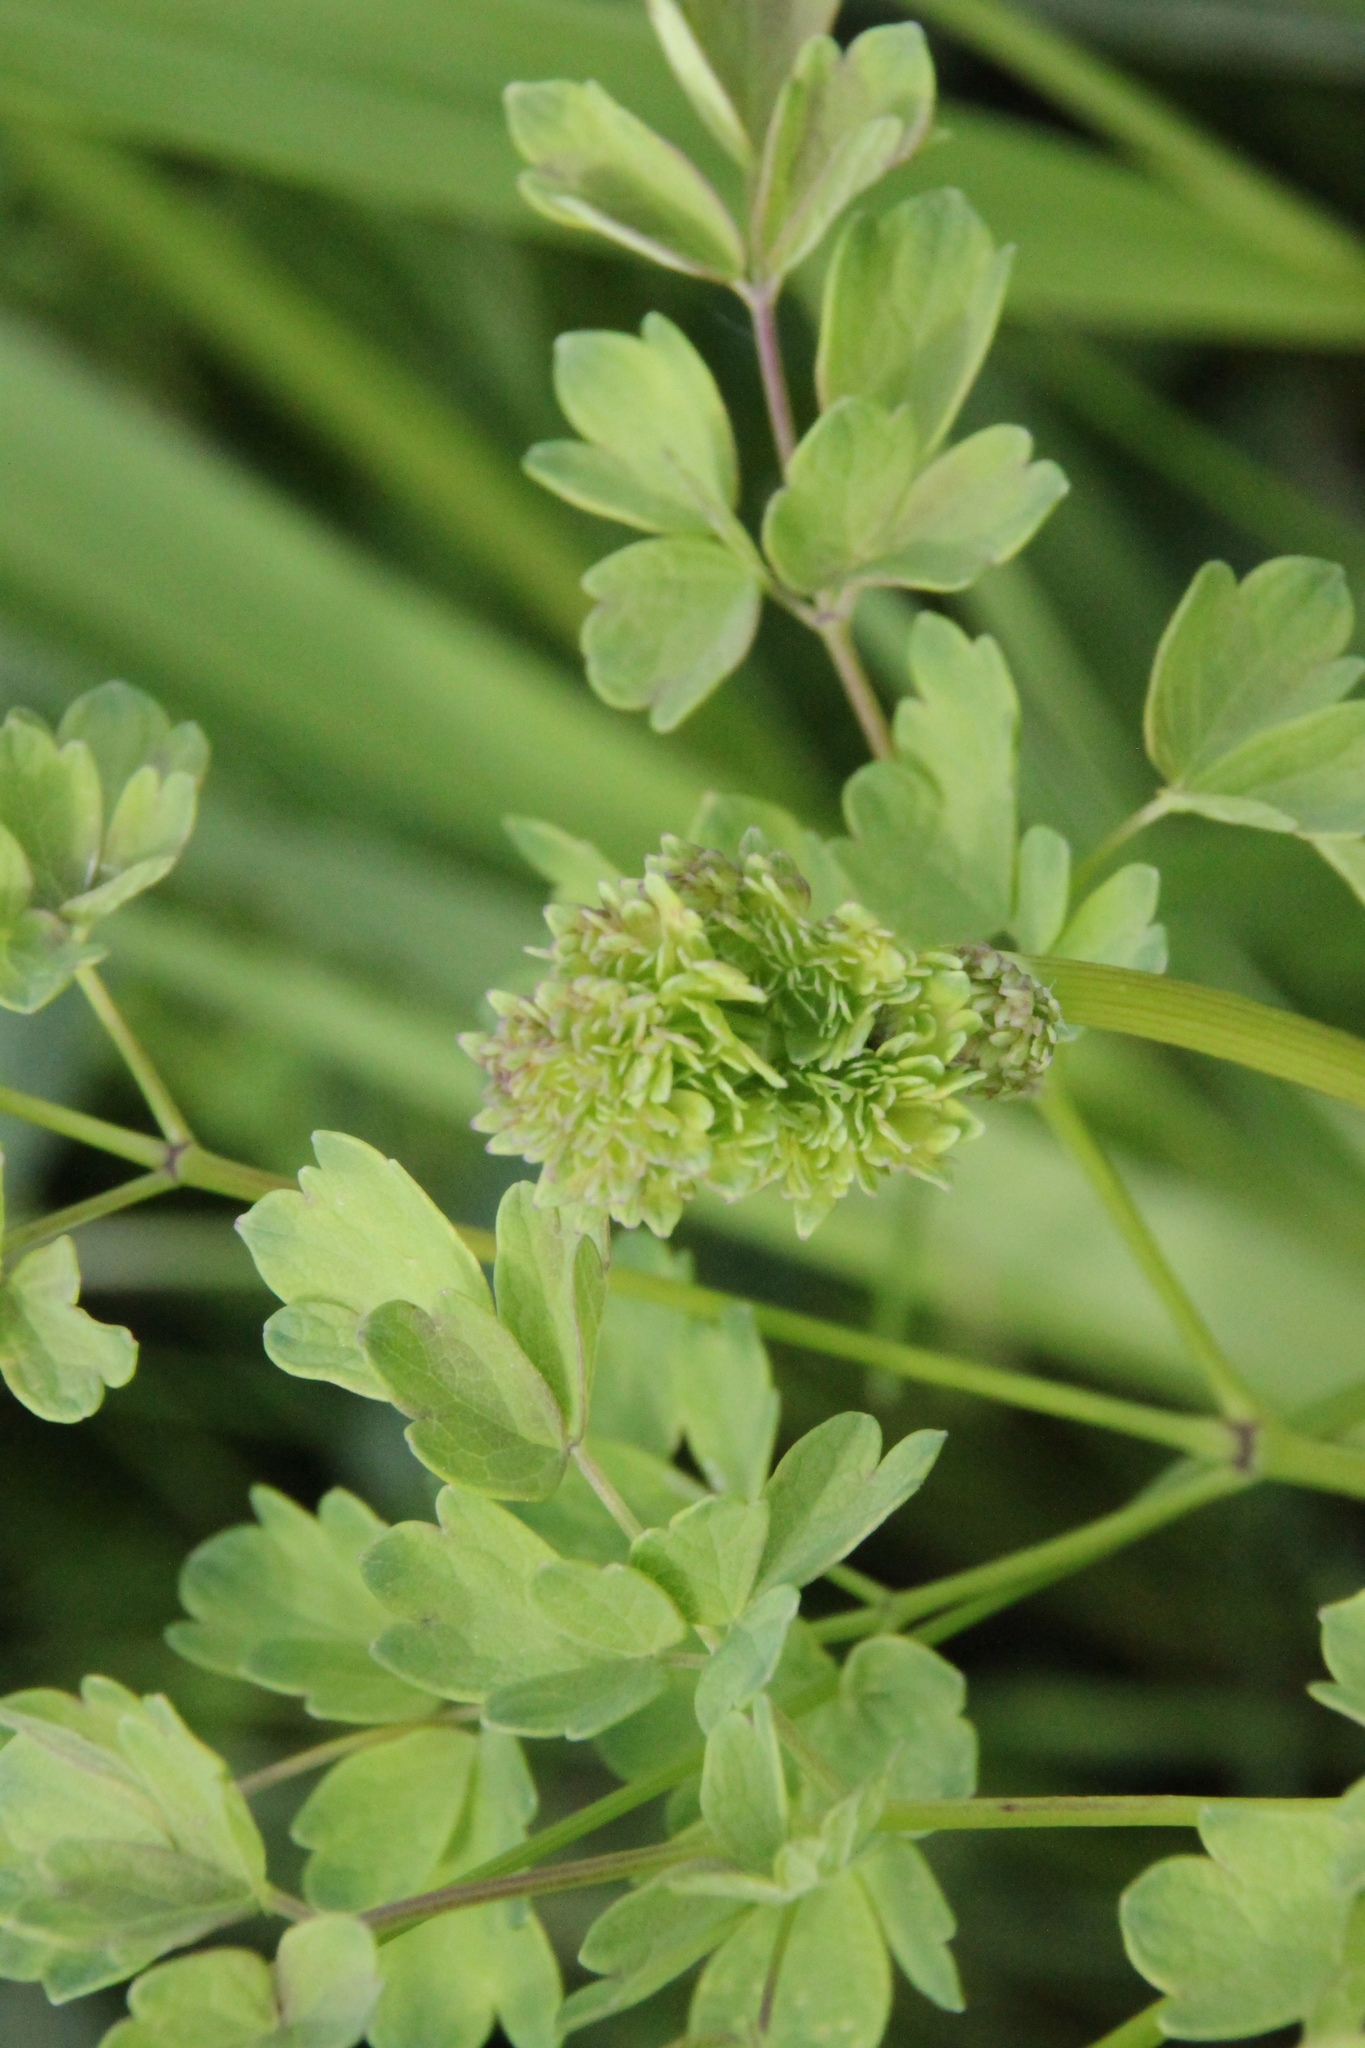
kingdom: Plantae
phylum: Tracheophyta
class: Magnoliopsida
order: Ranunculales
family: Ranunculaceae
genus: Thalictrum
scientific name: Thalictrum minus
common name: Lesser meadow-rue
